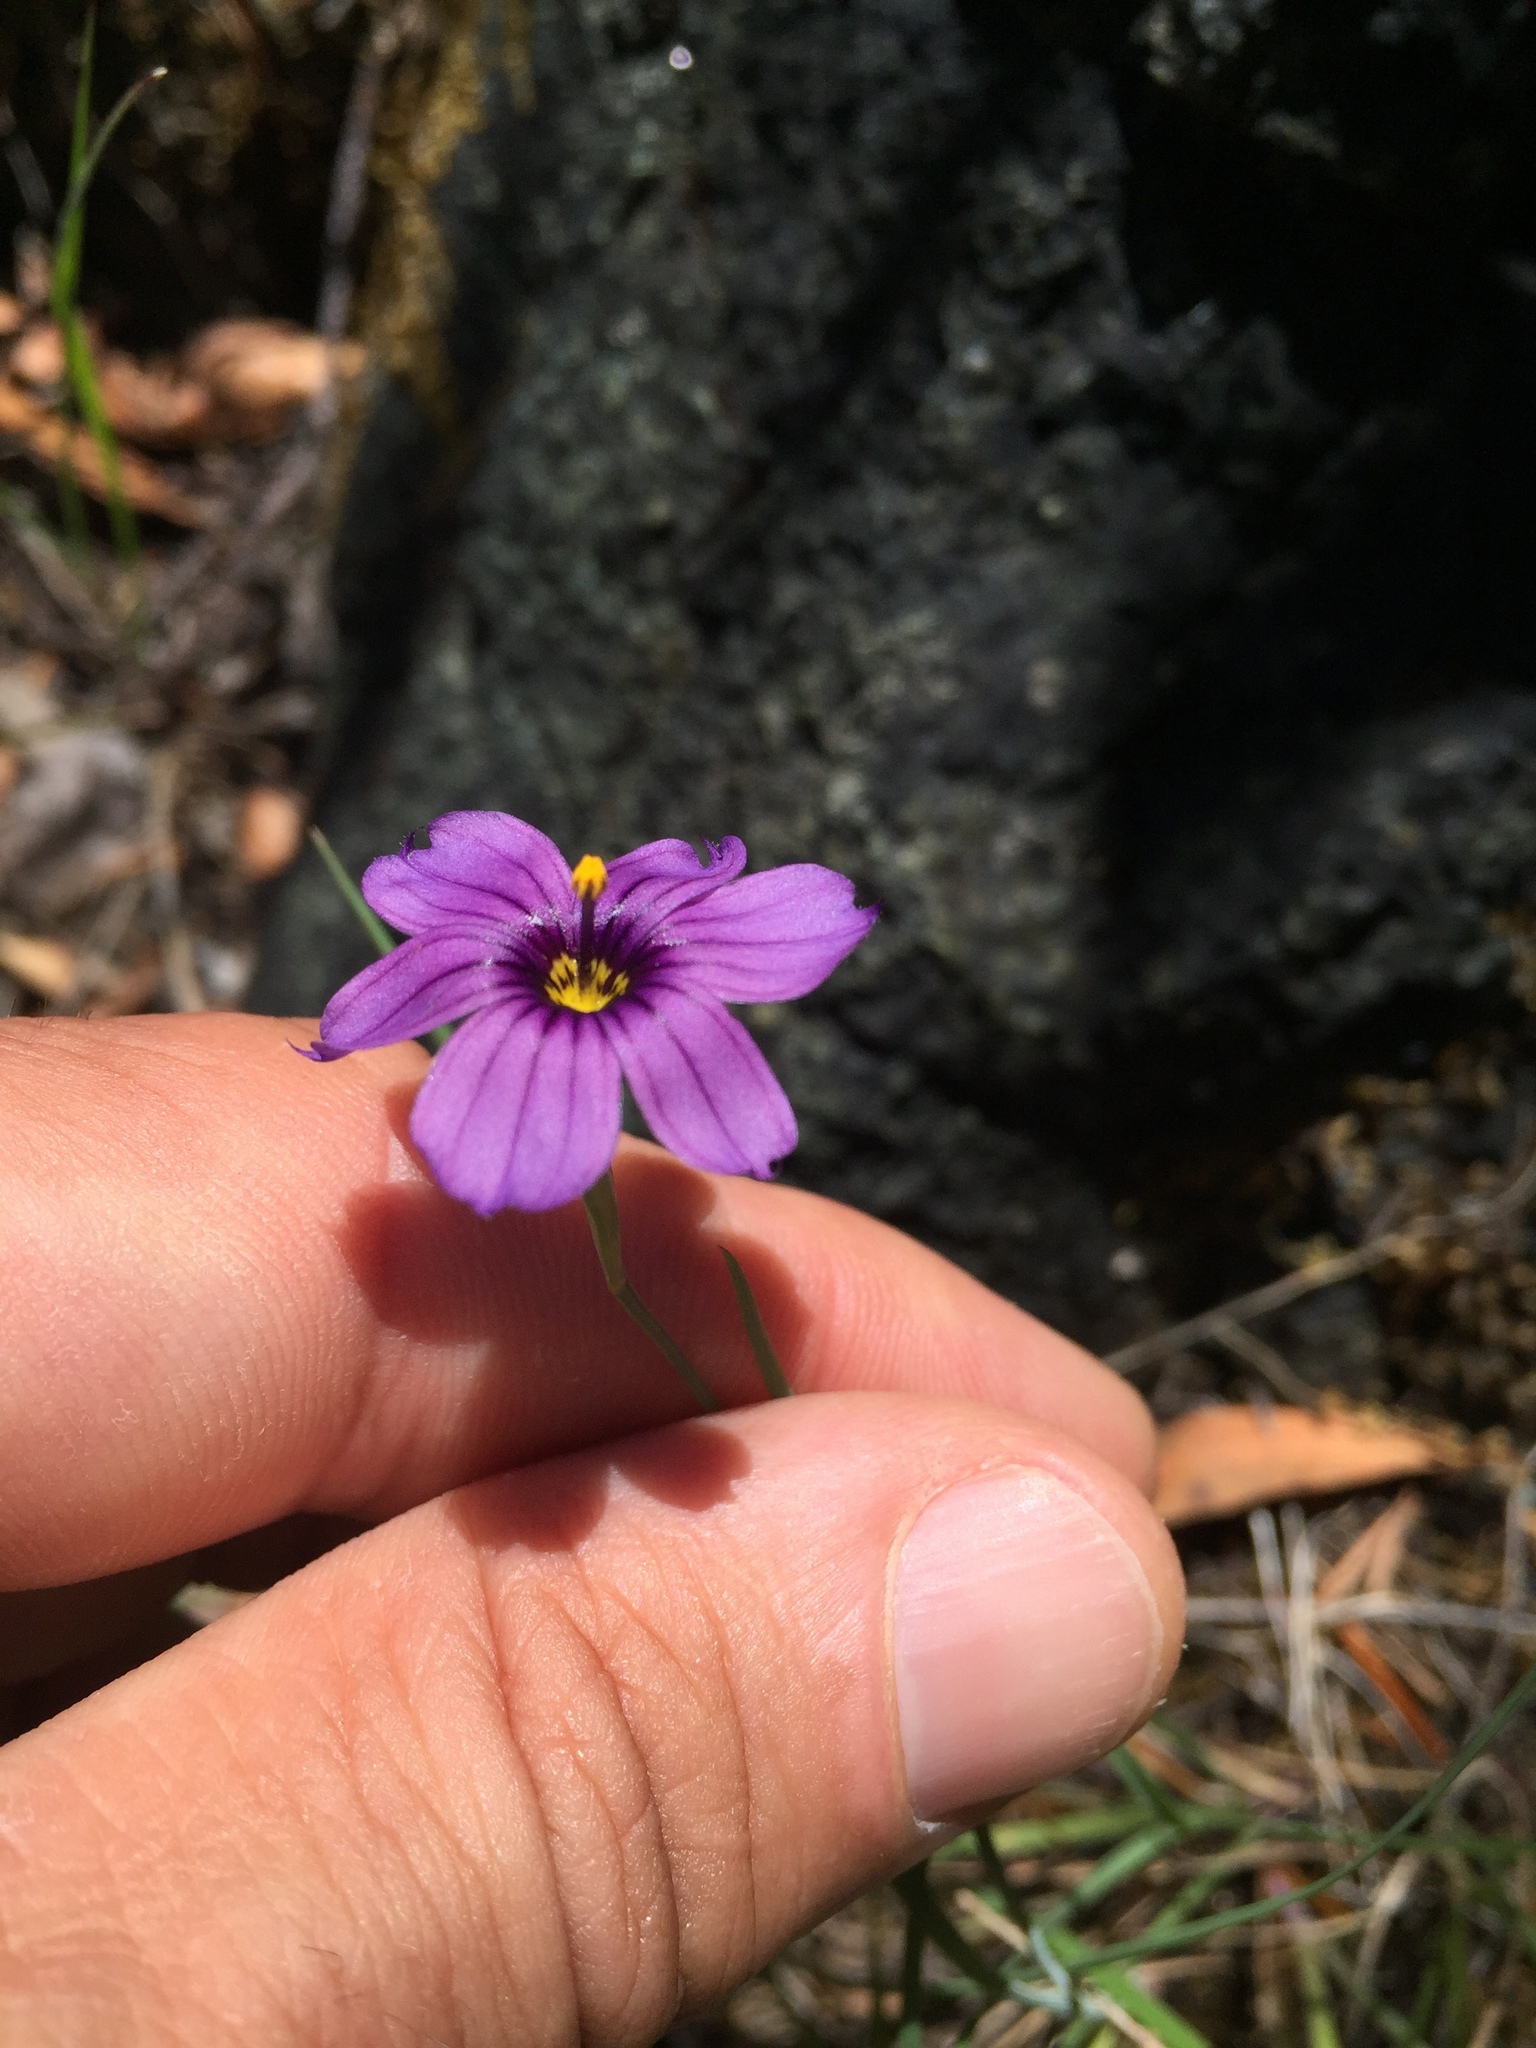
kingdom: Plantae
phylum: Tracheophyta
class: Liliopsida
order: Asparagales
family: Iridaceae
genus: Sisyrinchium
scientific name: Sisyrinchium bellum
